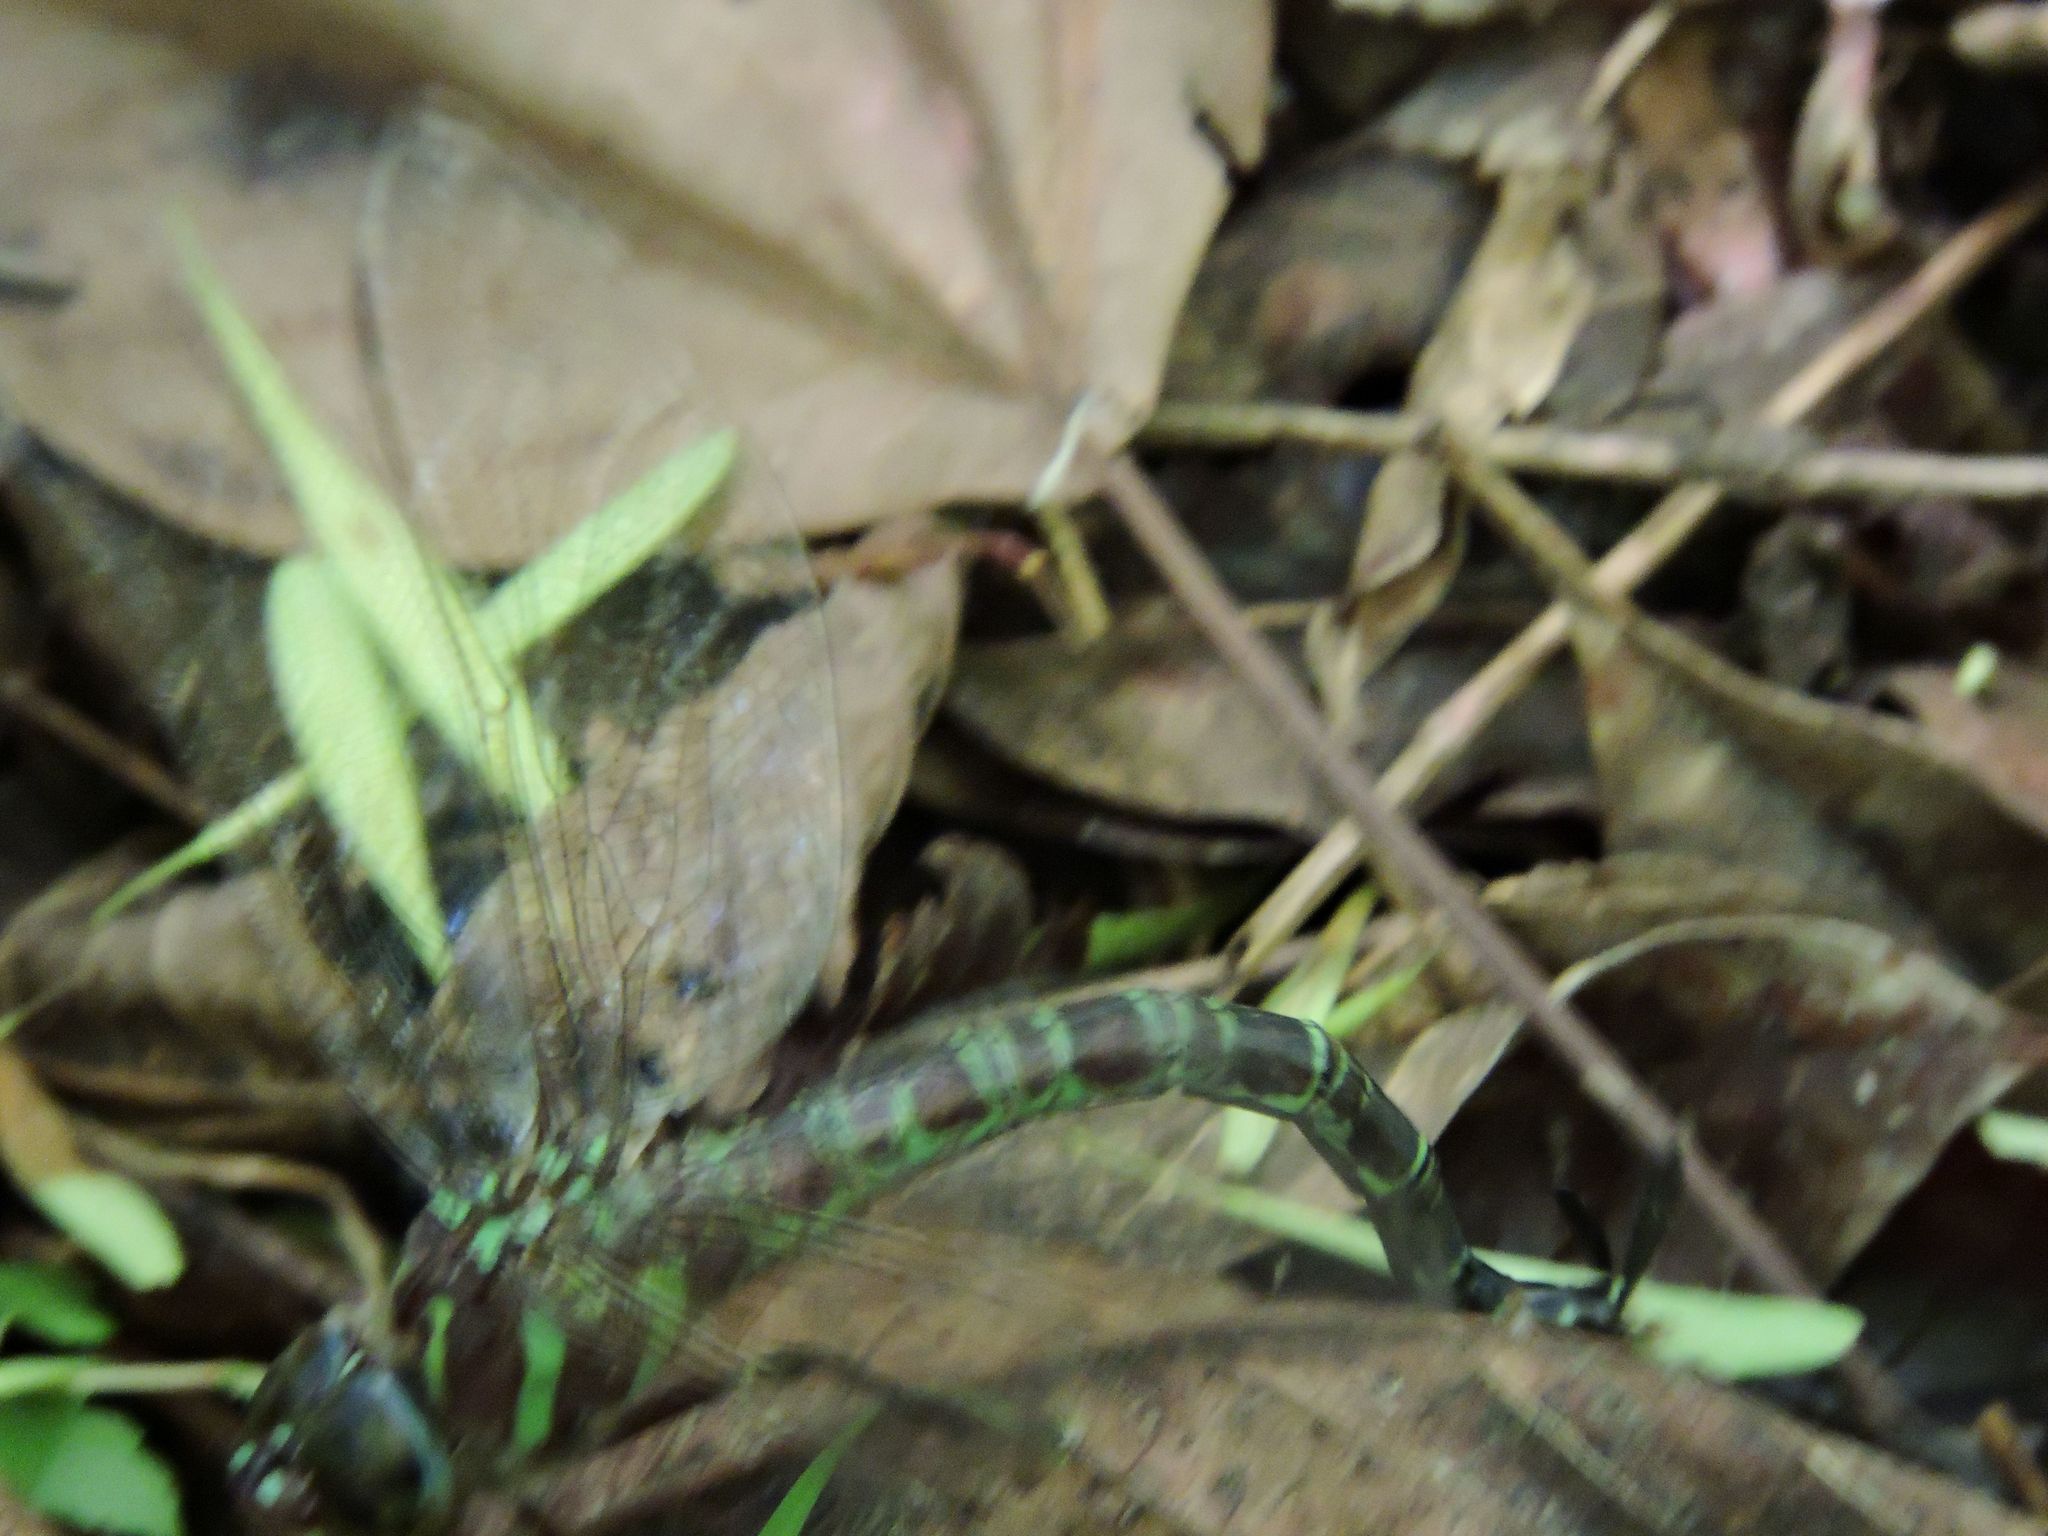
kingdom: Animalia
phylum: Arthropoda
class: Insecta
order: Odonata
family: Aeshnidae
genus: Epiaeschna
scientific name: Epiaeschna heros
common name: Swamp darner
